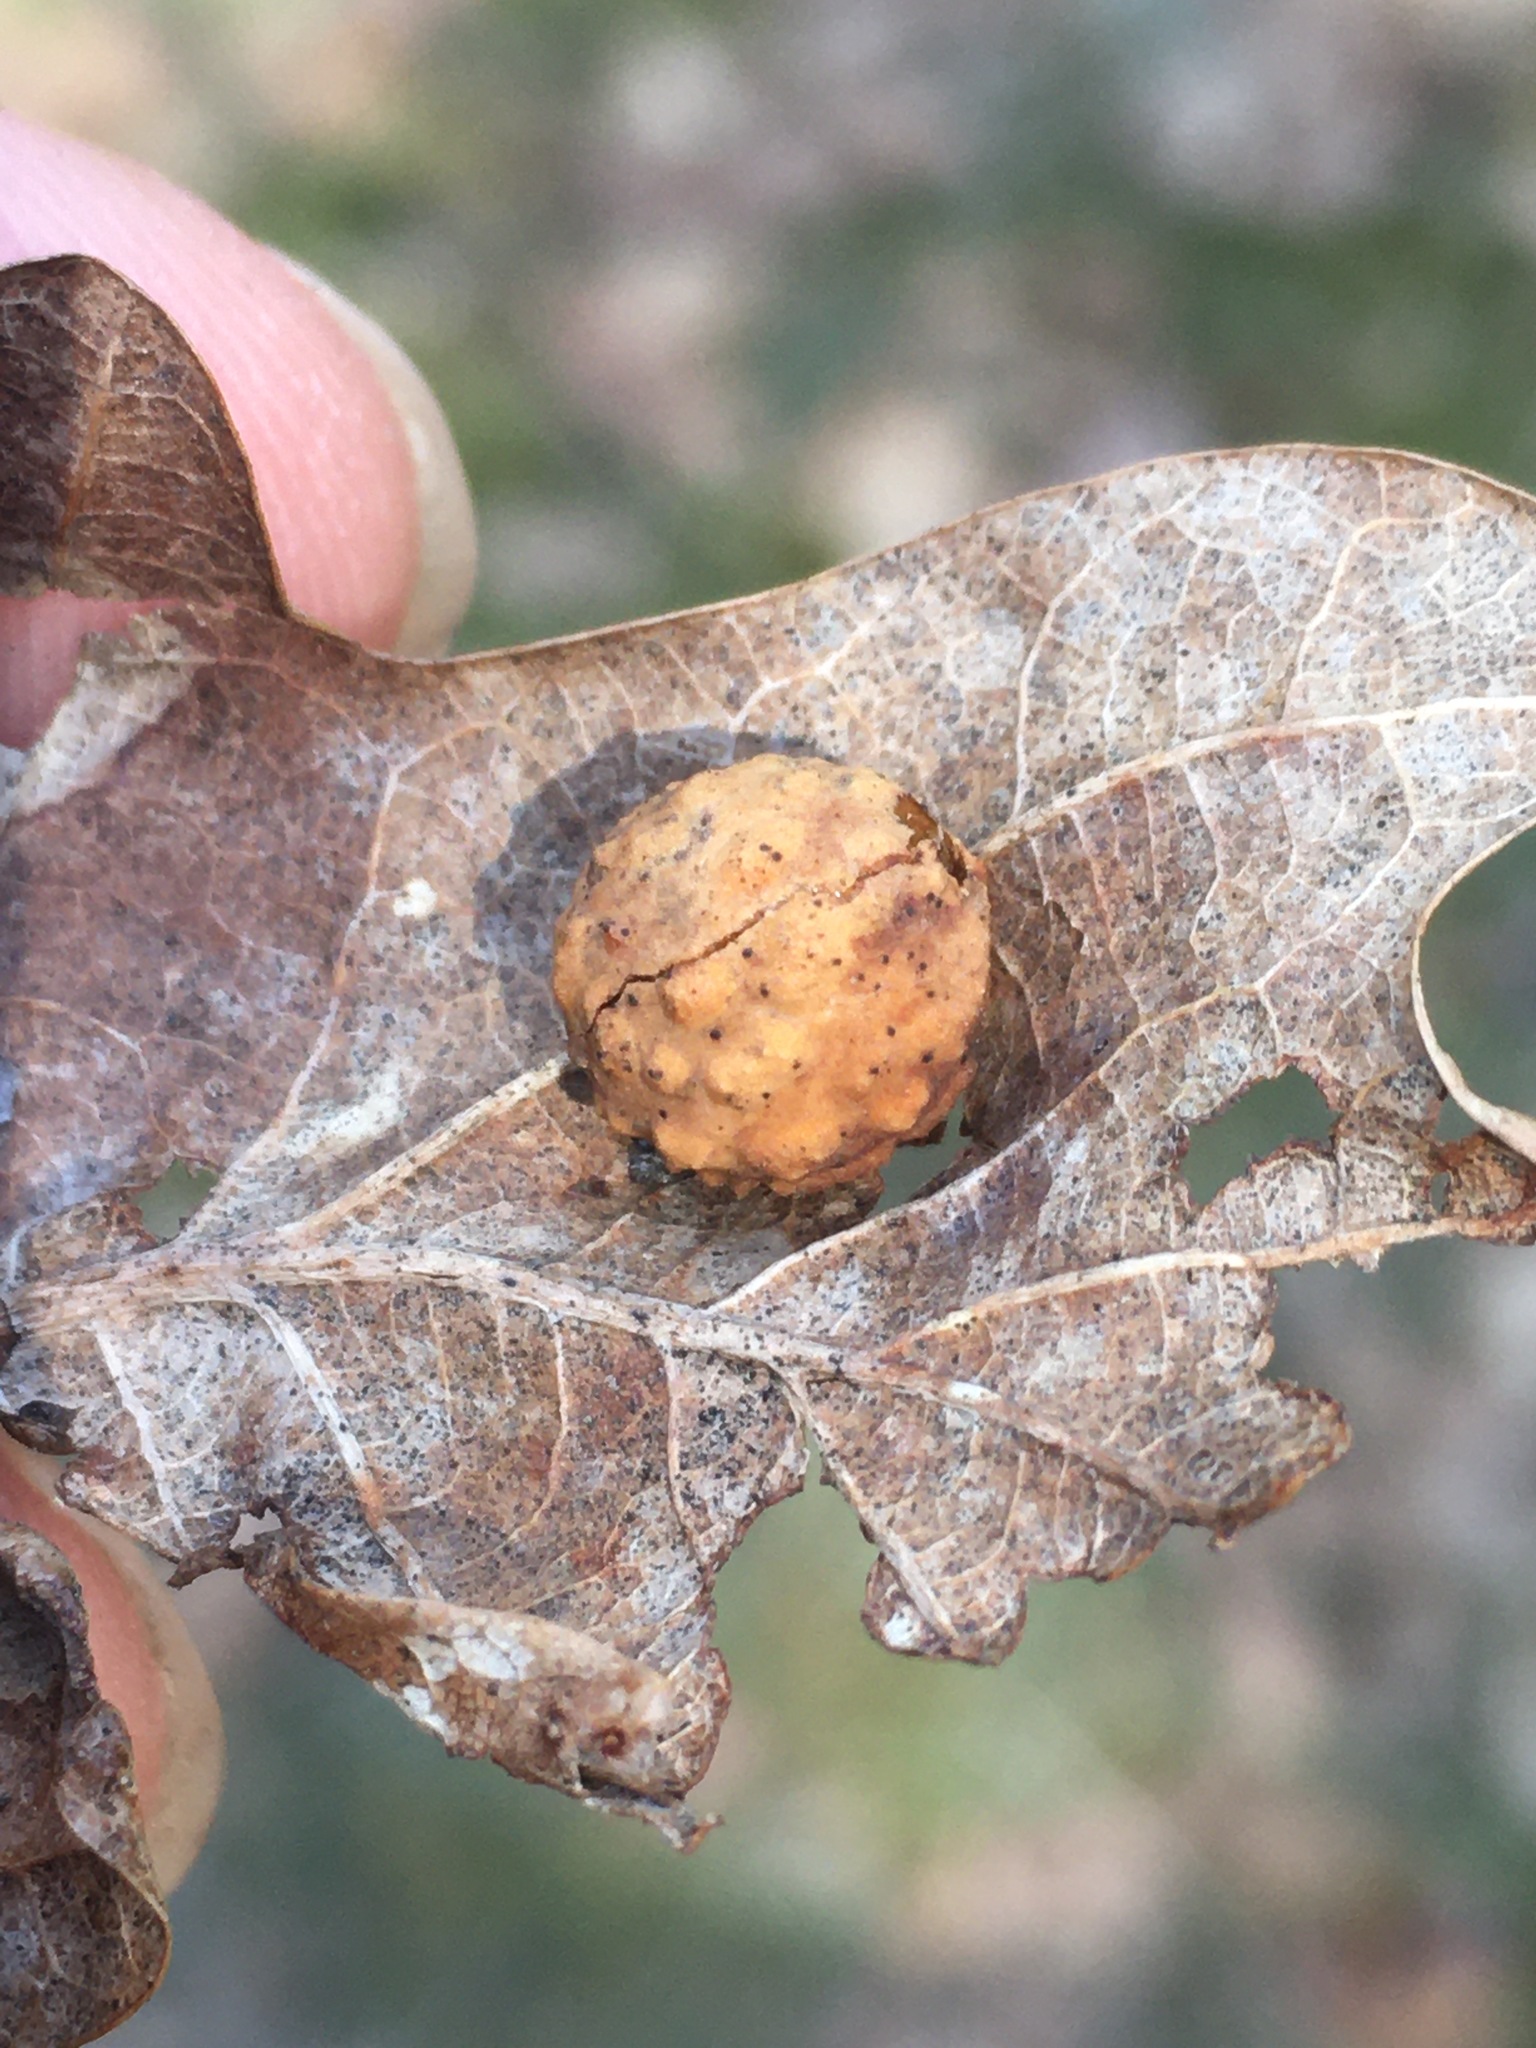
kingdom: Animalia
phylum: Arthropoda
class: Insecta
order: Hymenoptera
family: Cynipidae
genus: Cynips
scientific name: Cynips agama
